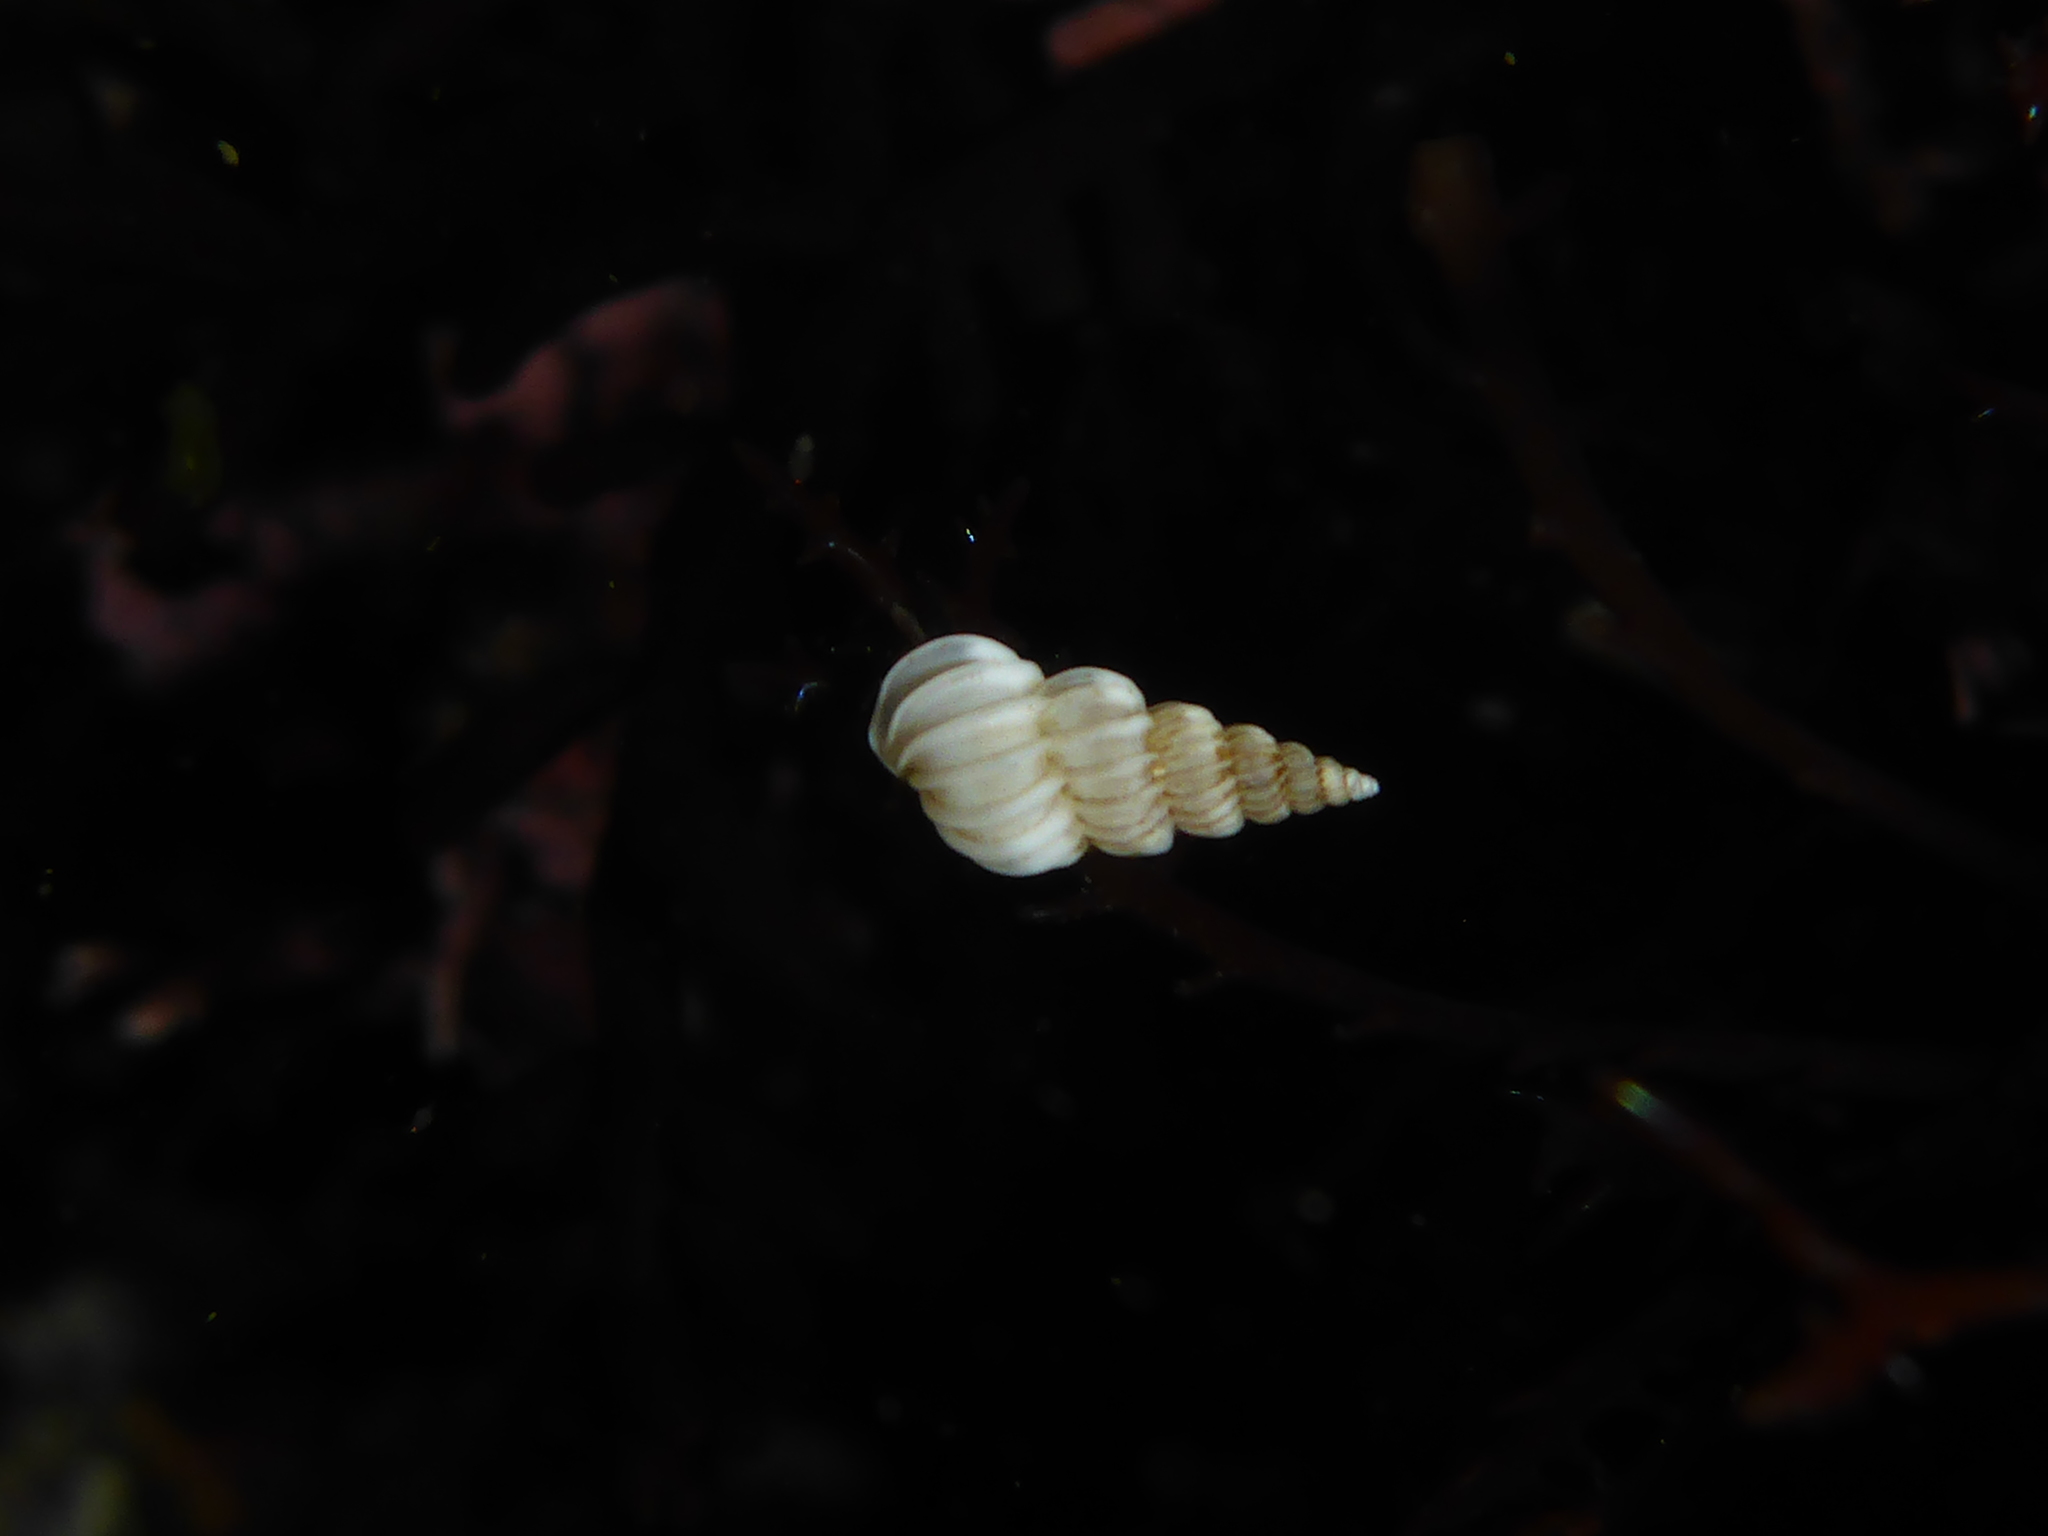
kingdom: Animalia
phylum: Mollusca
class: Gastropoda
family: Epitoniidae
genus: Epitonium
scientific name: Epitonium tinctum
